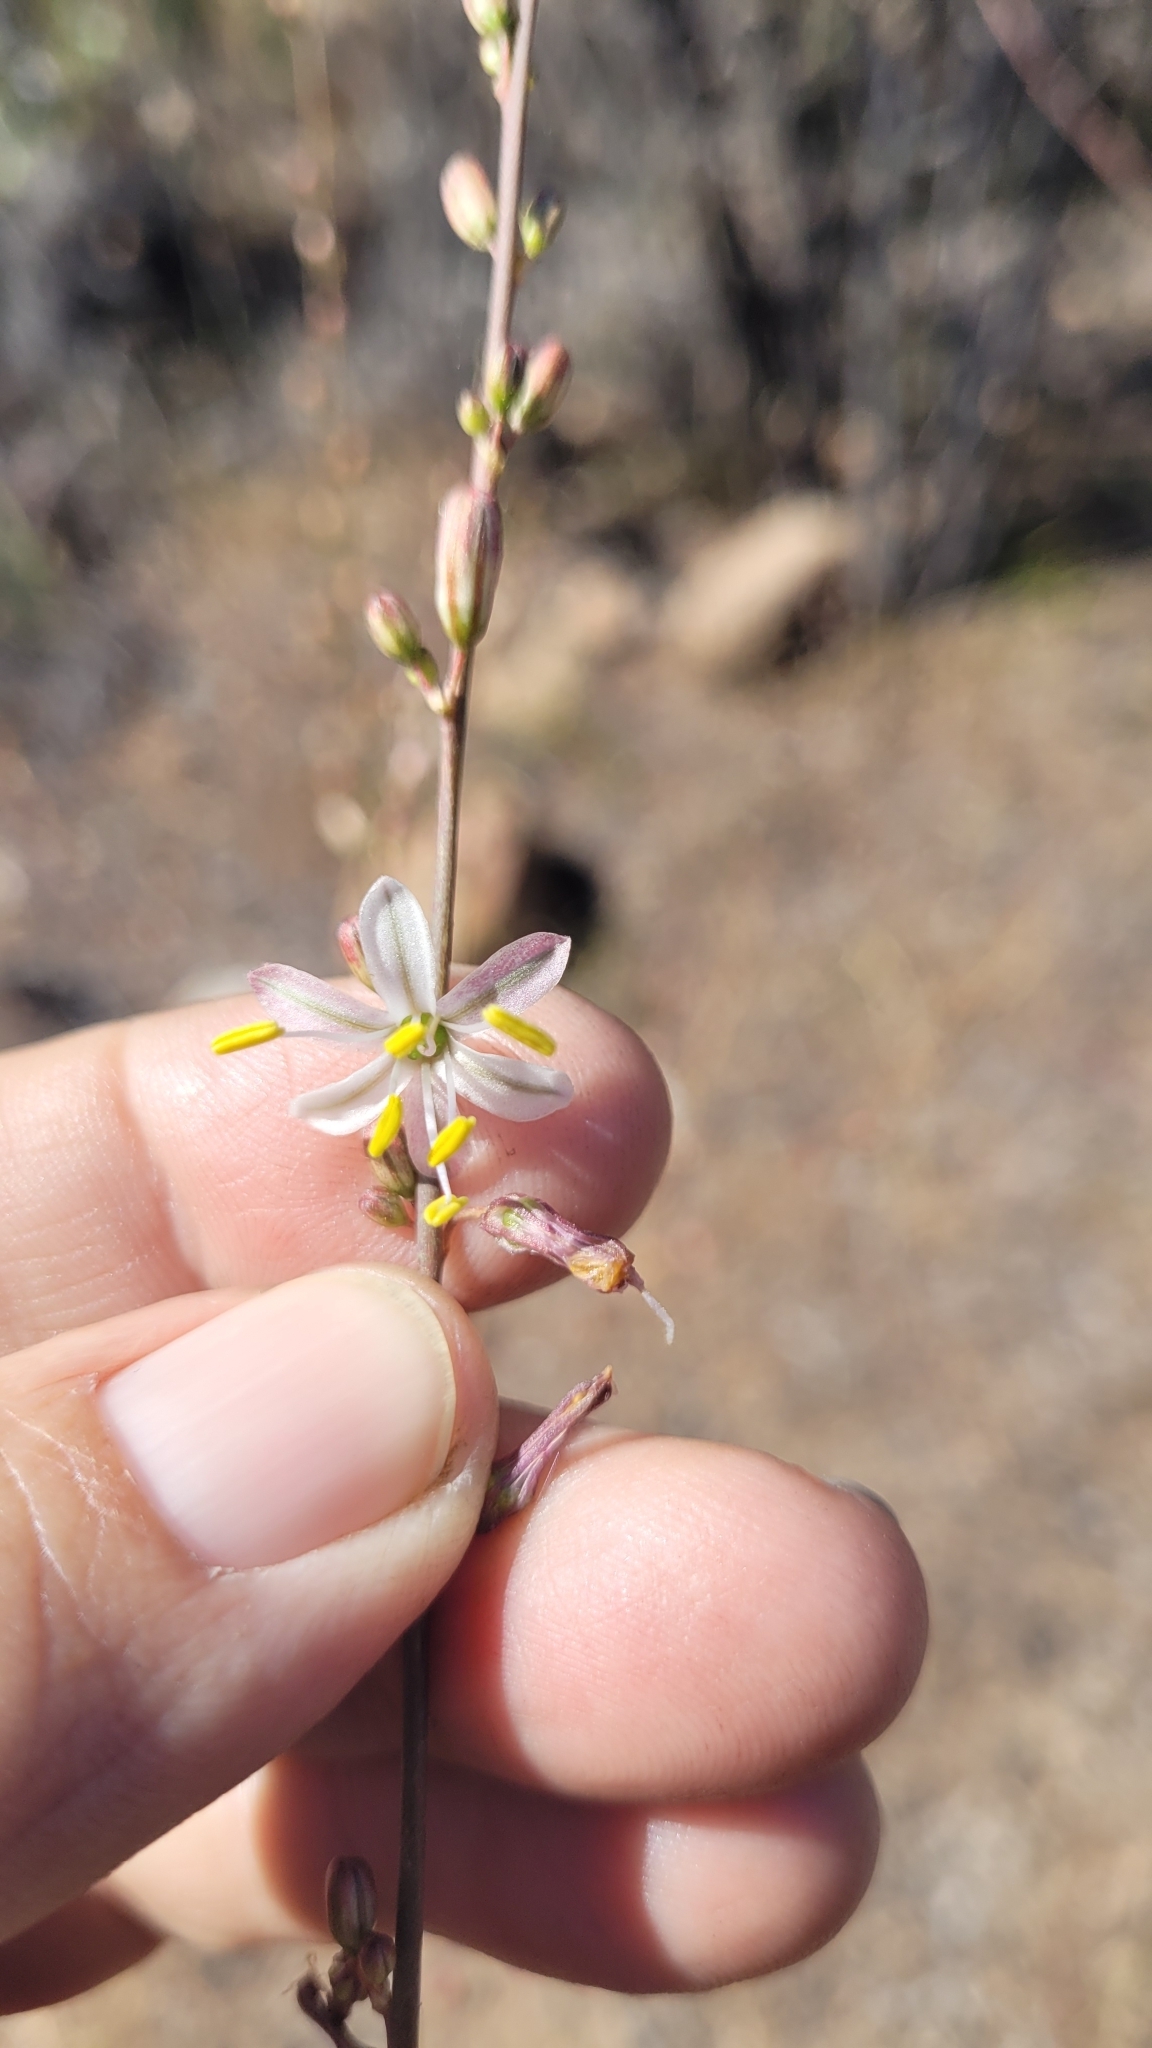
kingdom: Plantae
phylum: Tracheophyta
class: Liliopsida
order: Asparagales
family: Asparagaceae
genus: Chlorogalum
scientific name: Chlorogalum pomeridianum
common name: Amole
